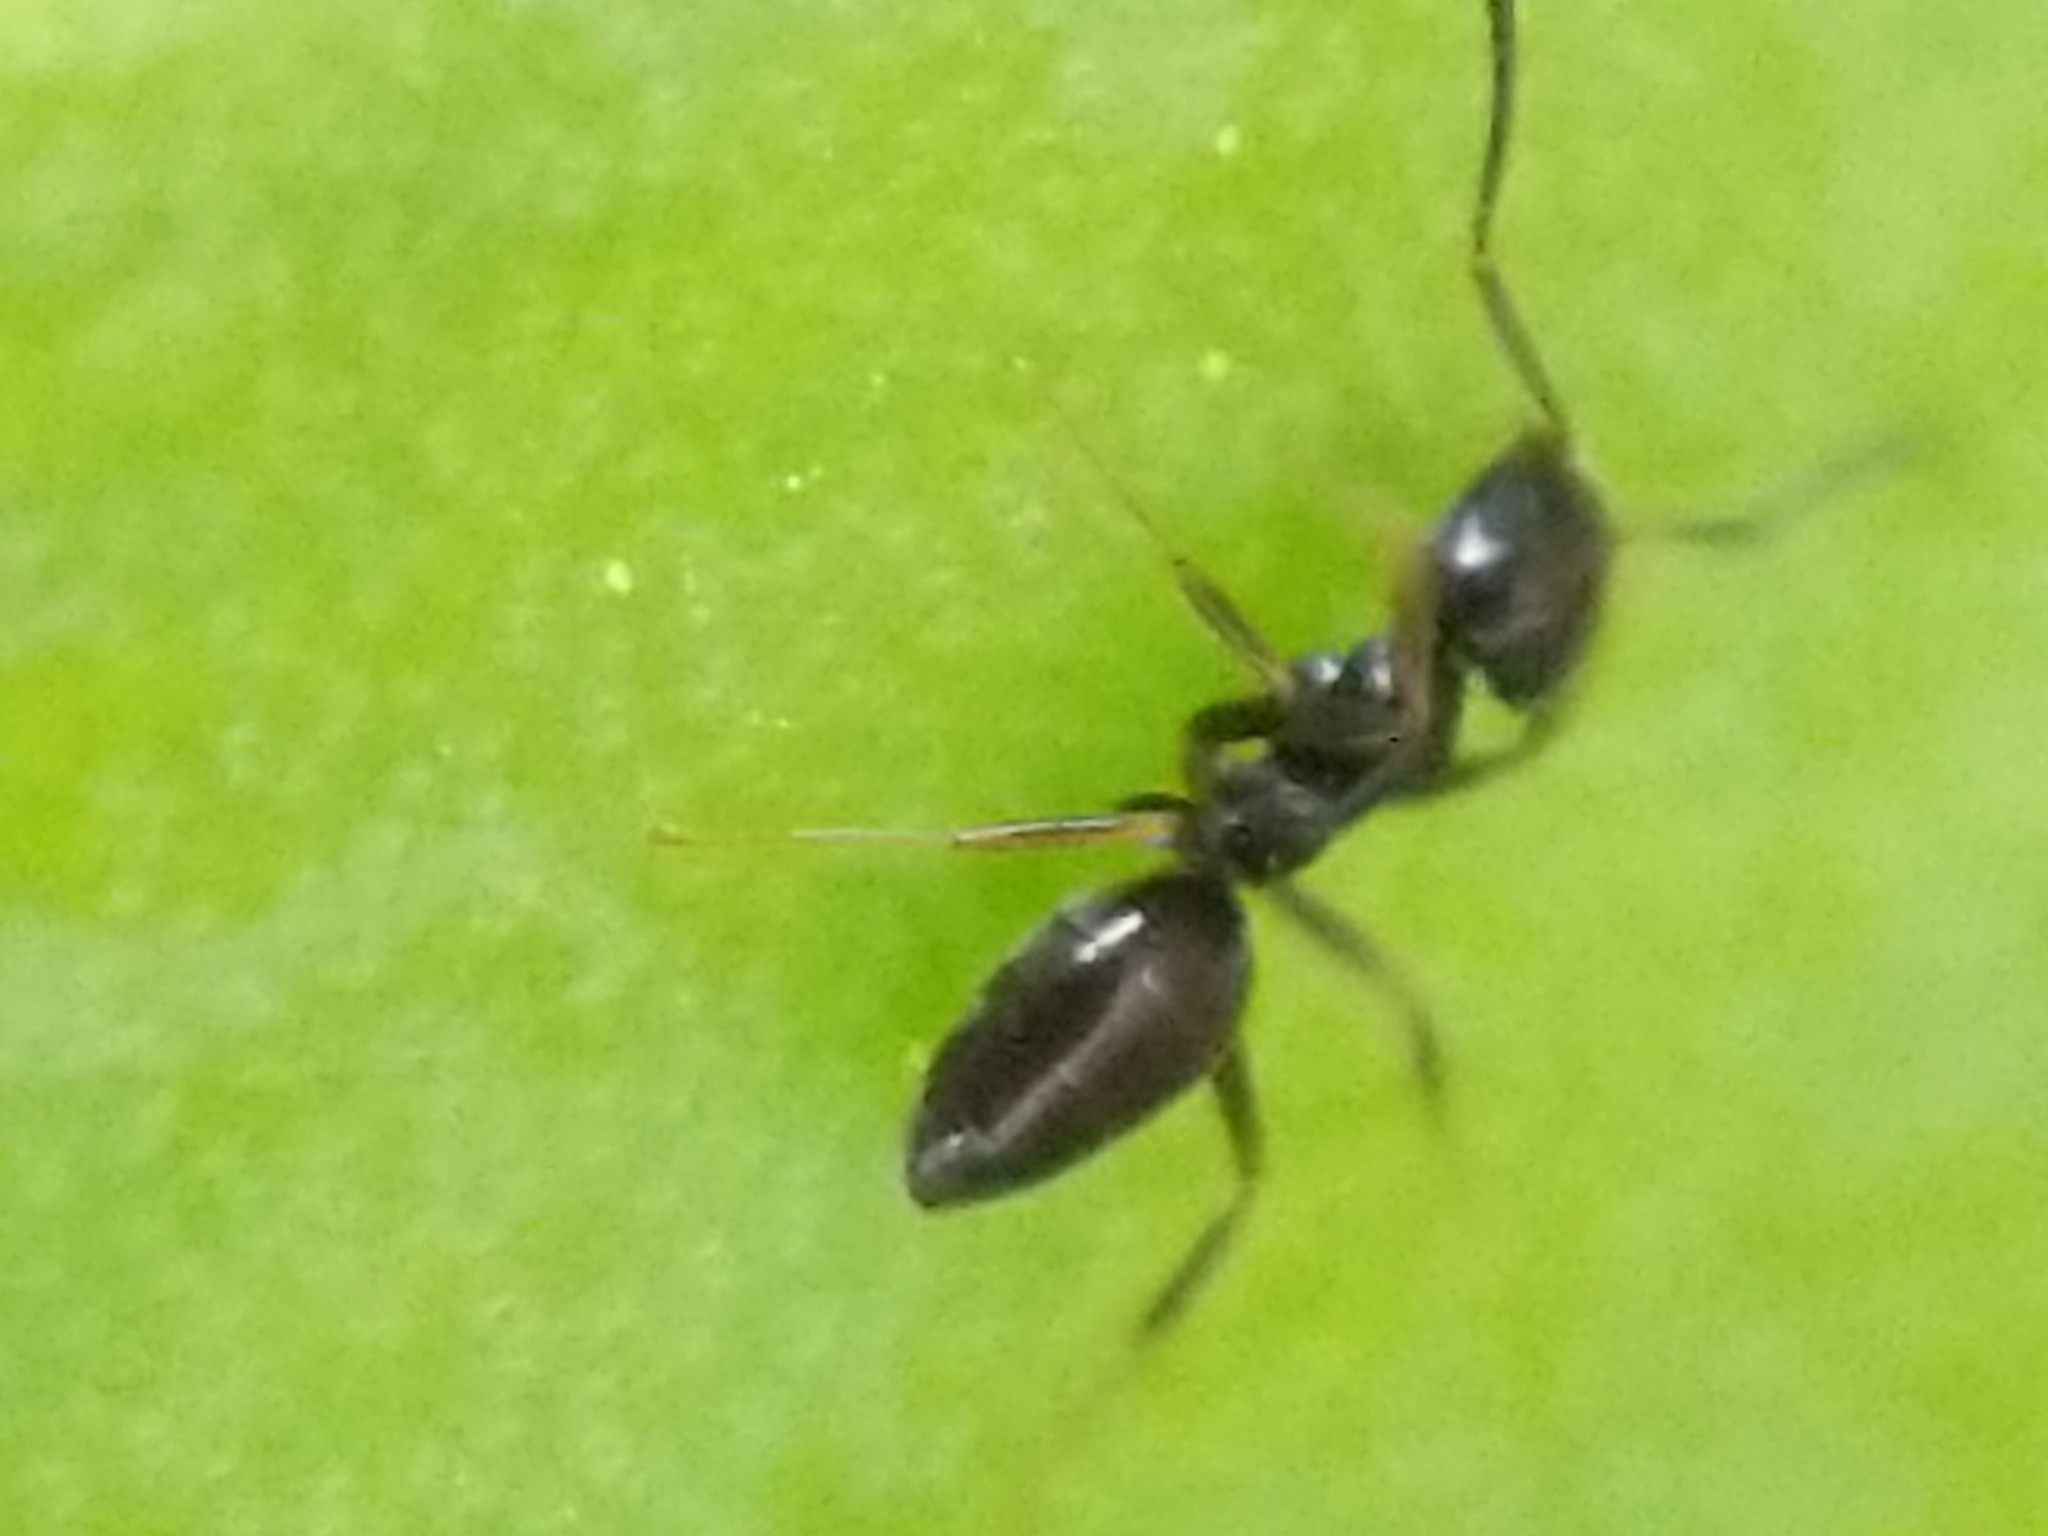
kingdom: Animalia
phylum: Arthropoda
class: Insecta
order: Hymenoptera
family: Formicidae
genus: Tapinoma
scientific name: Tapinoma sessile
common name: Odorous house ant
